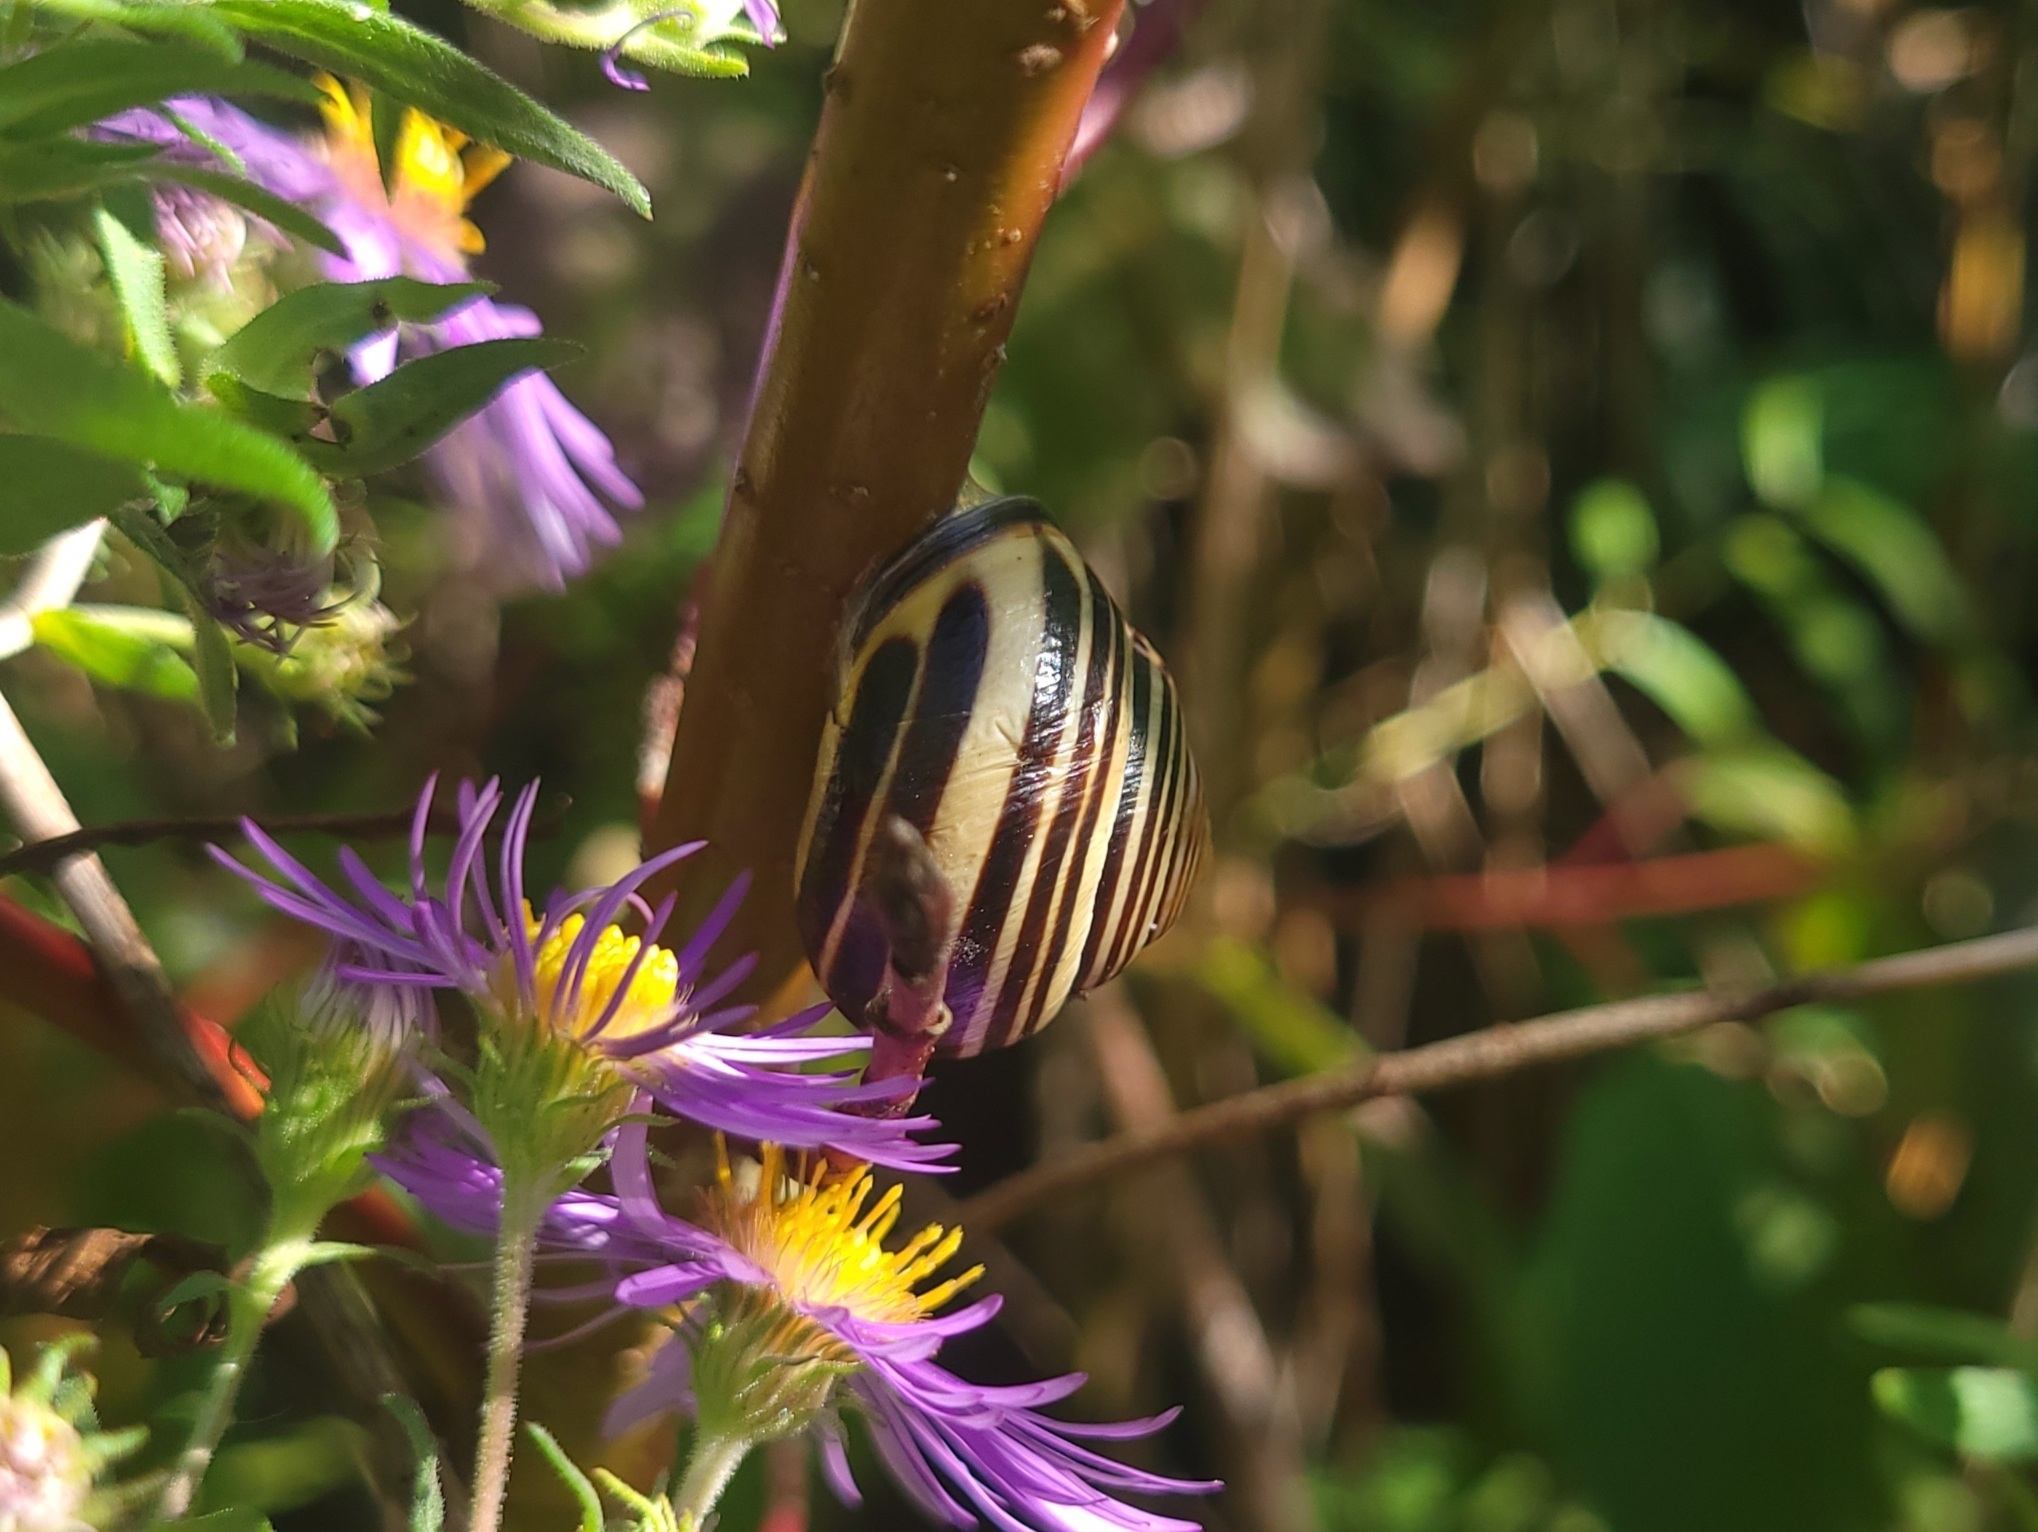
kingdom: Animalia
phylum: Mollusca
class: Gastropoda
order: Stylommatophora
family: Helicidae
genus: Cepaea
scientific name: Cepaea nemoralis
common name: Grovesnail
